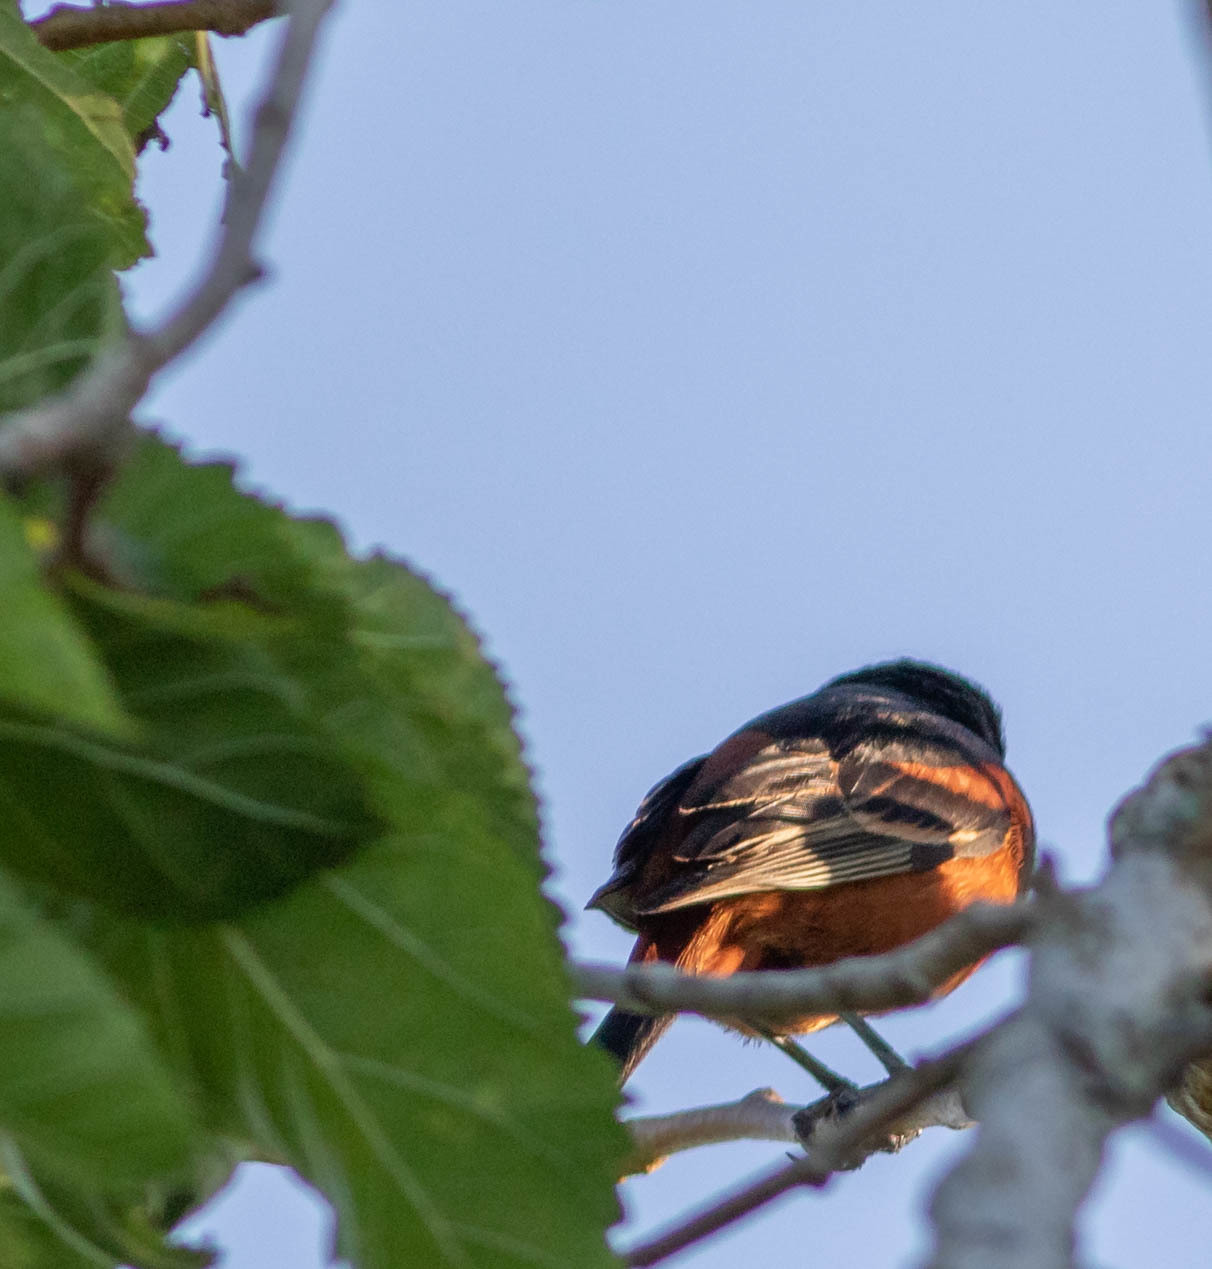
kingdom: Animalia
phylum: Chordata
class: Aves
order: Passeriformes
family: Icteridae
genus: Icterus
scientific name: Icterus spurius
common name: Orchard oriole
